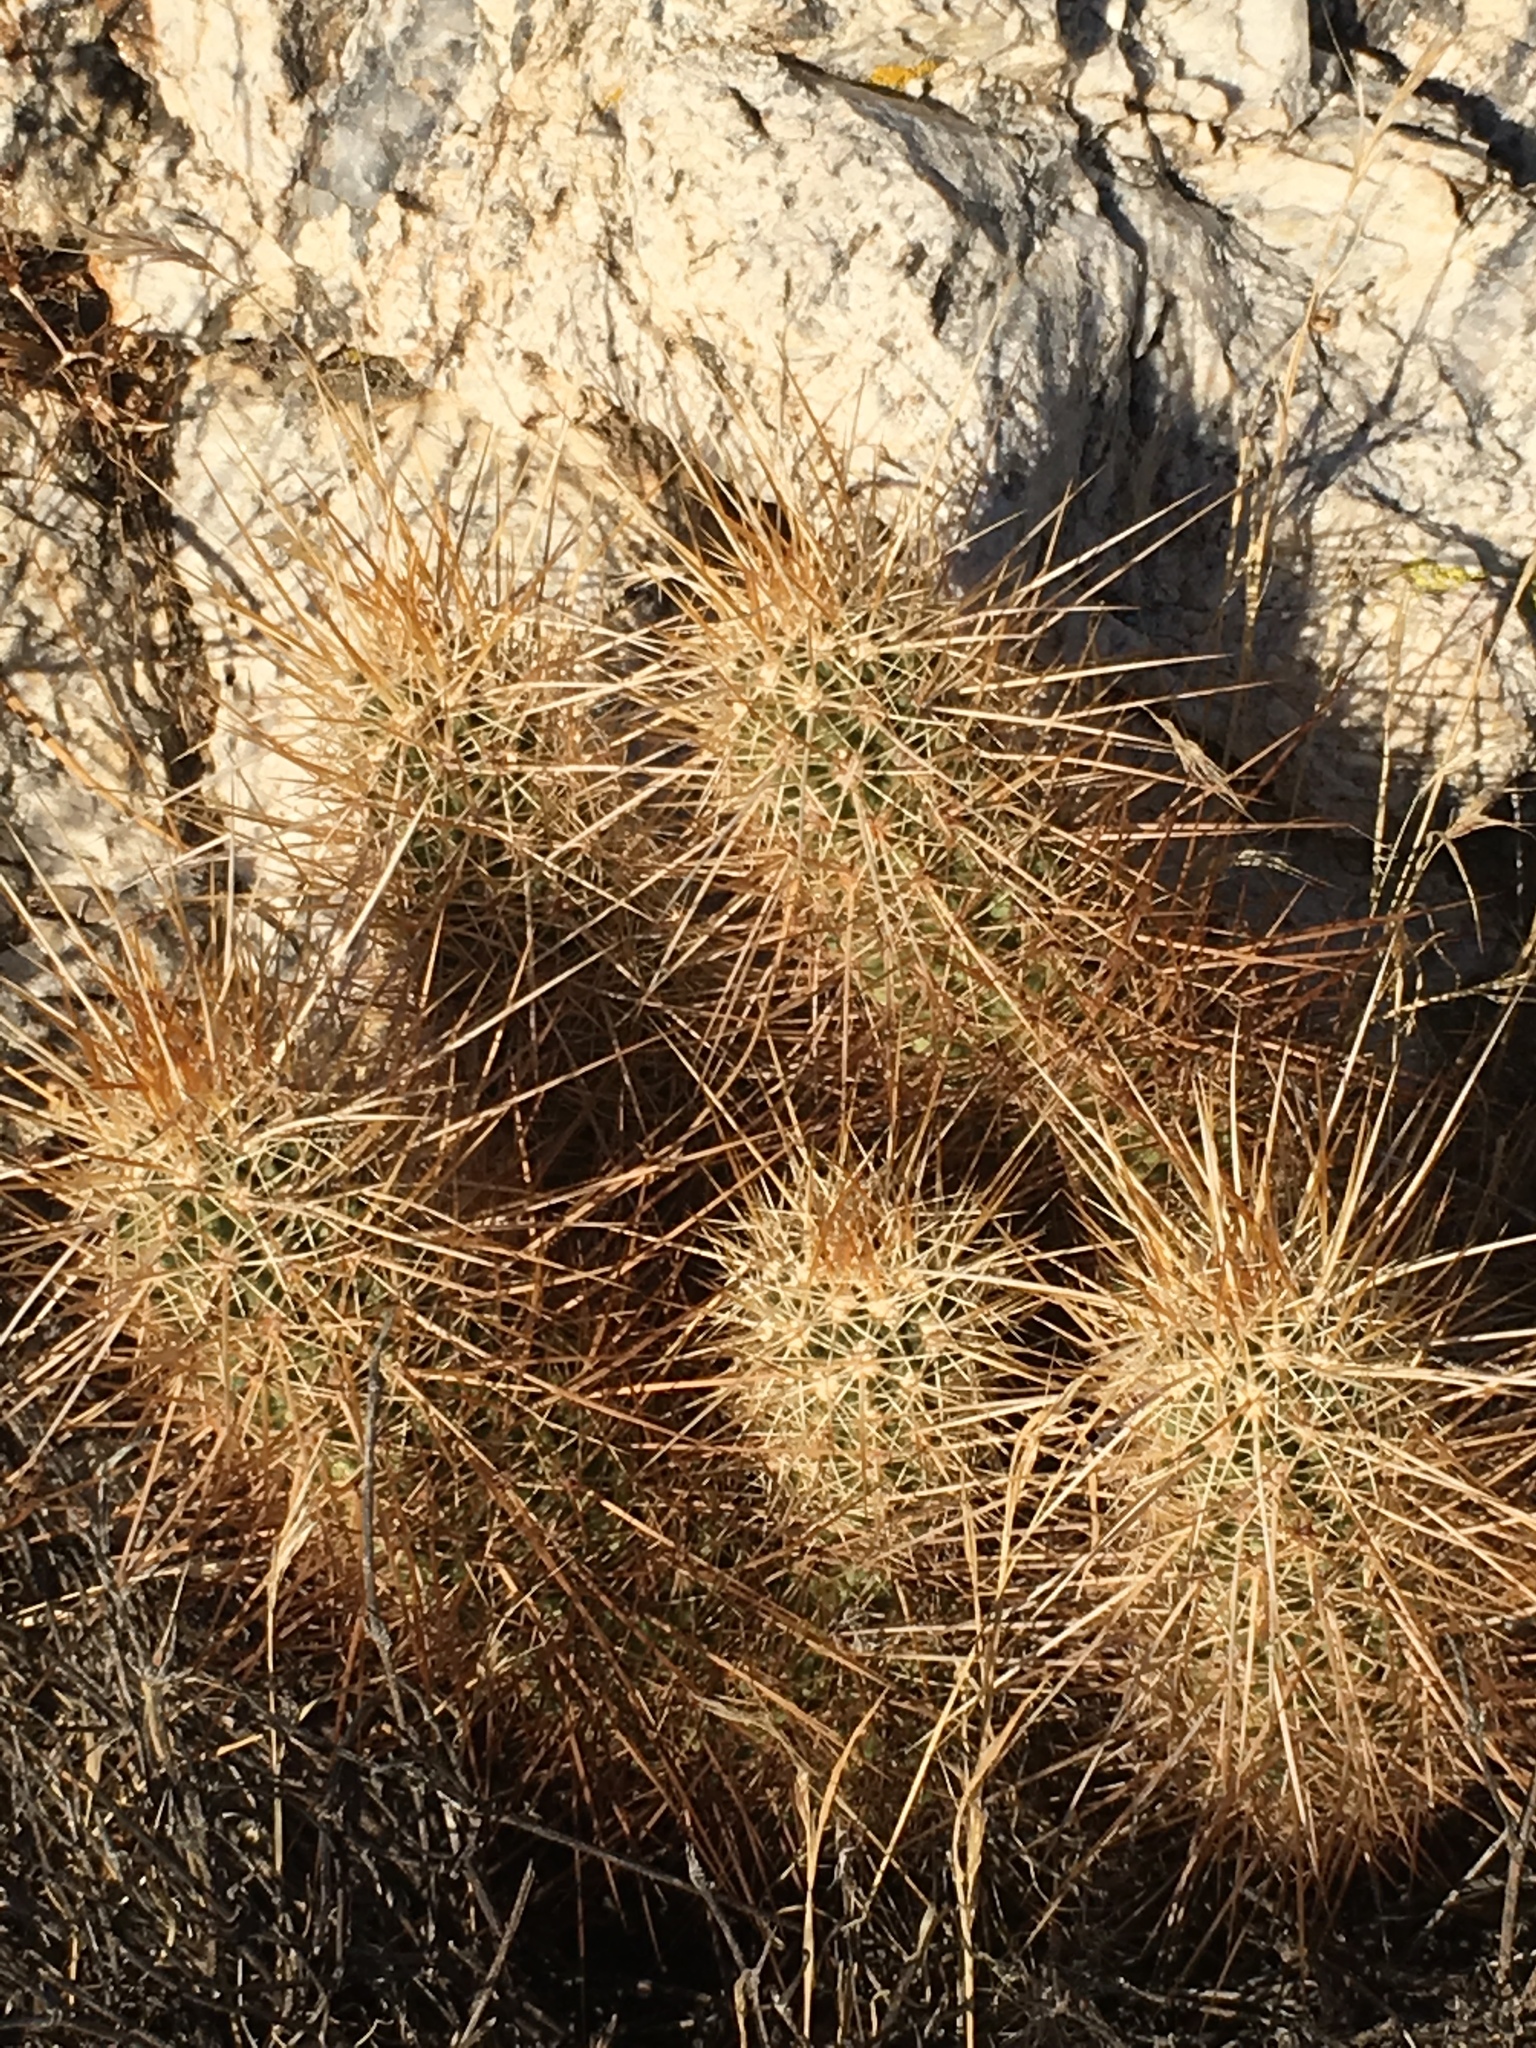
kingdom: Plantae
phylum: Tracheophyta
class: Magnoliopsida
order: Caryophyllales
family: Cactaceae
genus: Echinocereus
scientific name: Echinocereus engelmannii
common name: Engelmann's hedgehog cactus
